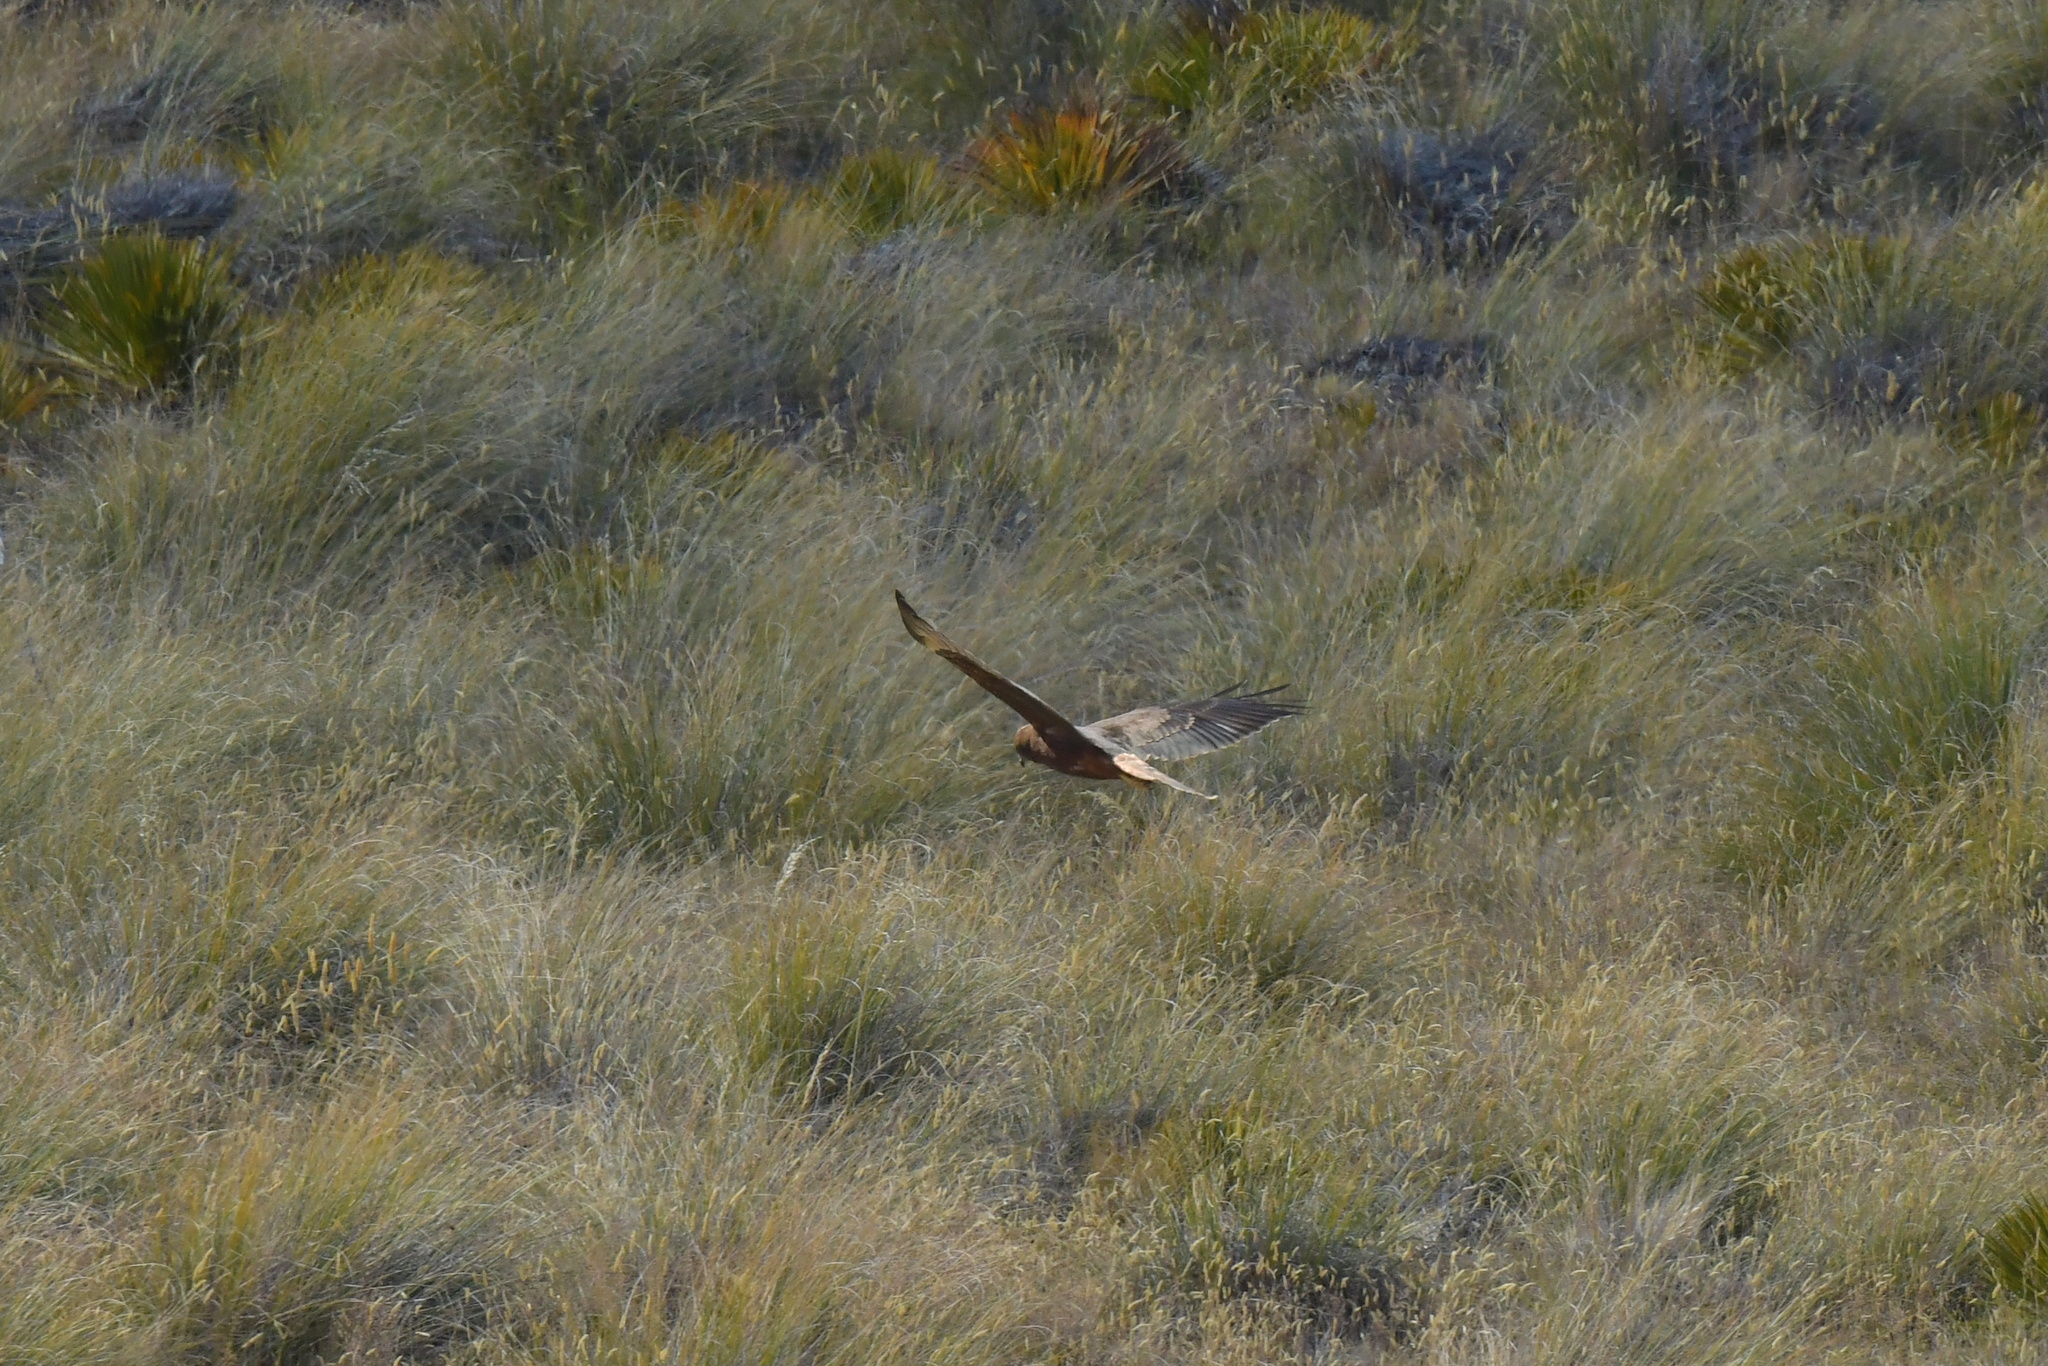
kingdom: Animalia
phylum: Chordata
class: Aves
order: Accipitriformes
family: Accipitridae
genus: Circus
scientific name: Circus approximans
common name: Swamp harrier
